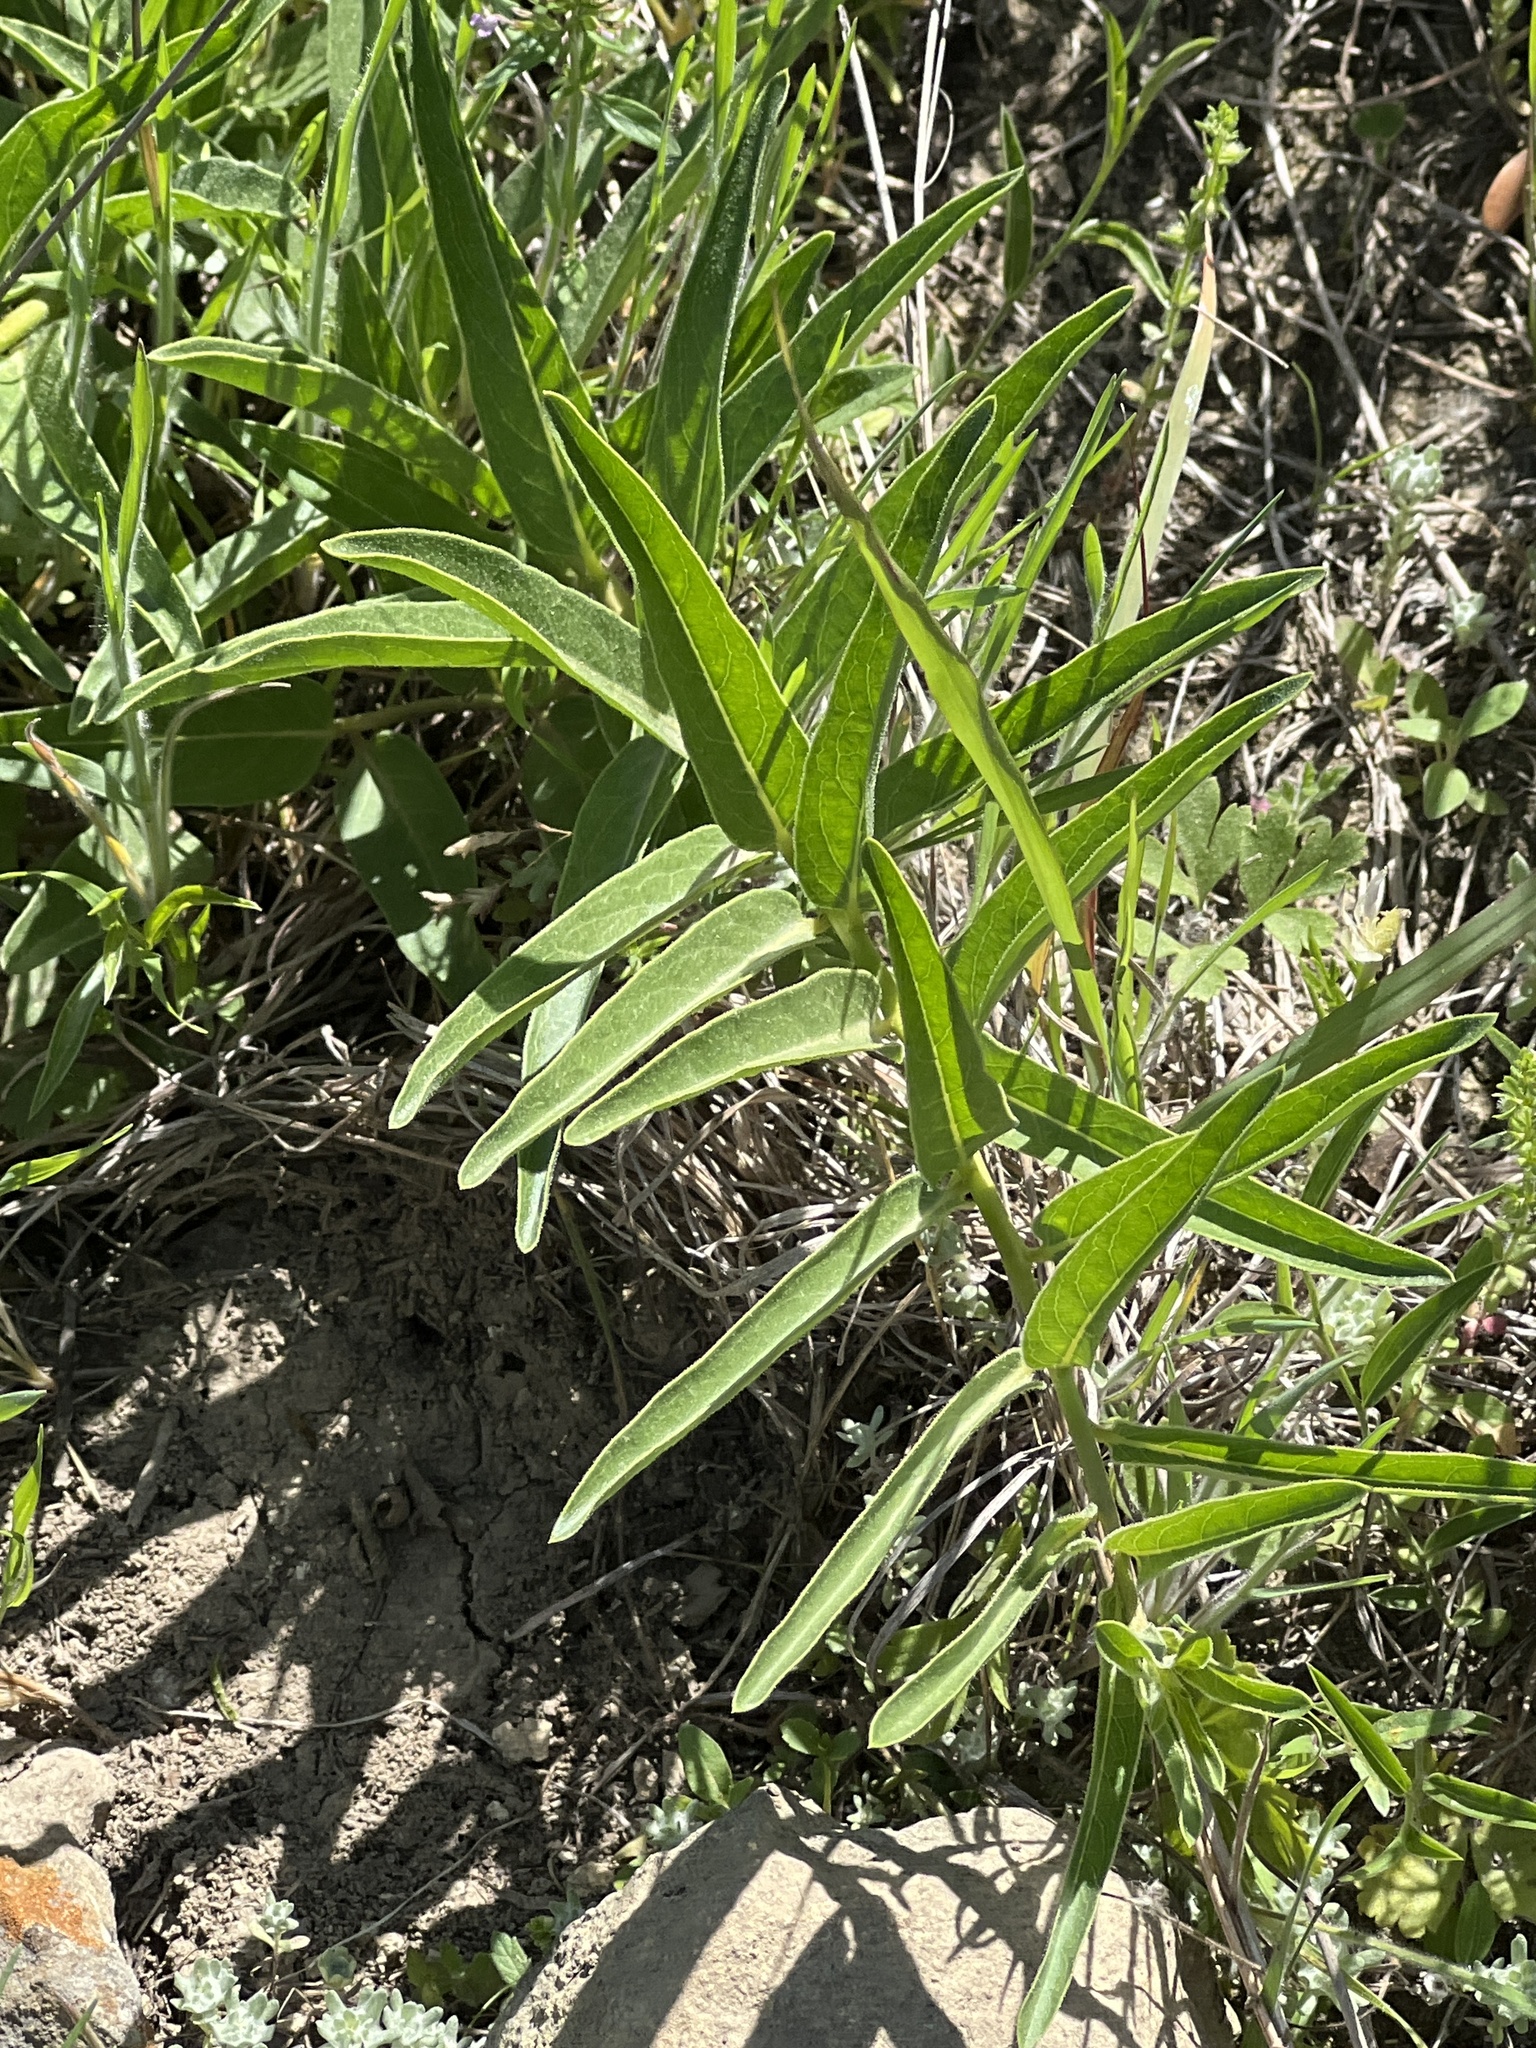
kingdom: Plantae
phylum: Tracheophyta
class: Magnoliopsida
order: Gentianales
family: Apocynaceae
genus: Asclepias
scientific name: Asclepias asperula
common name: Antelope horns
